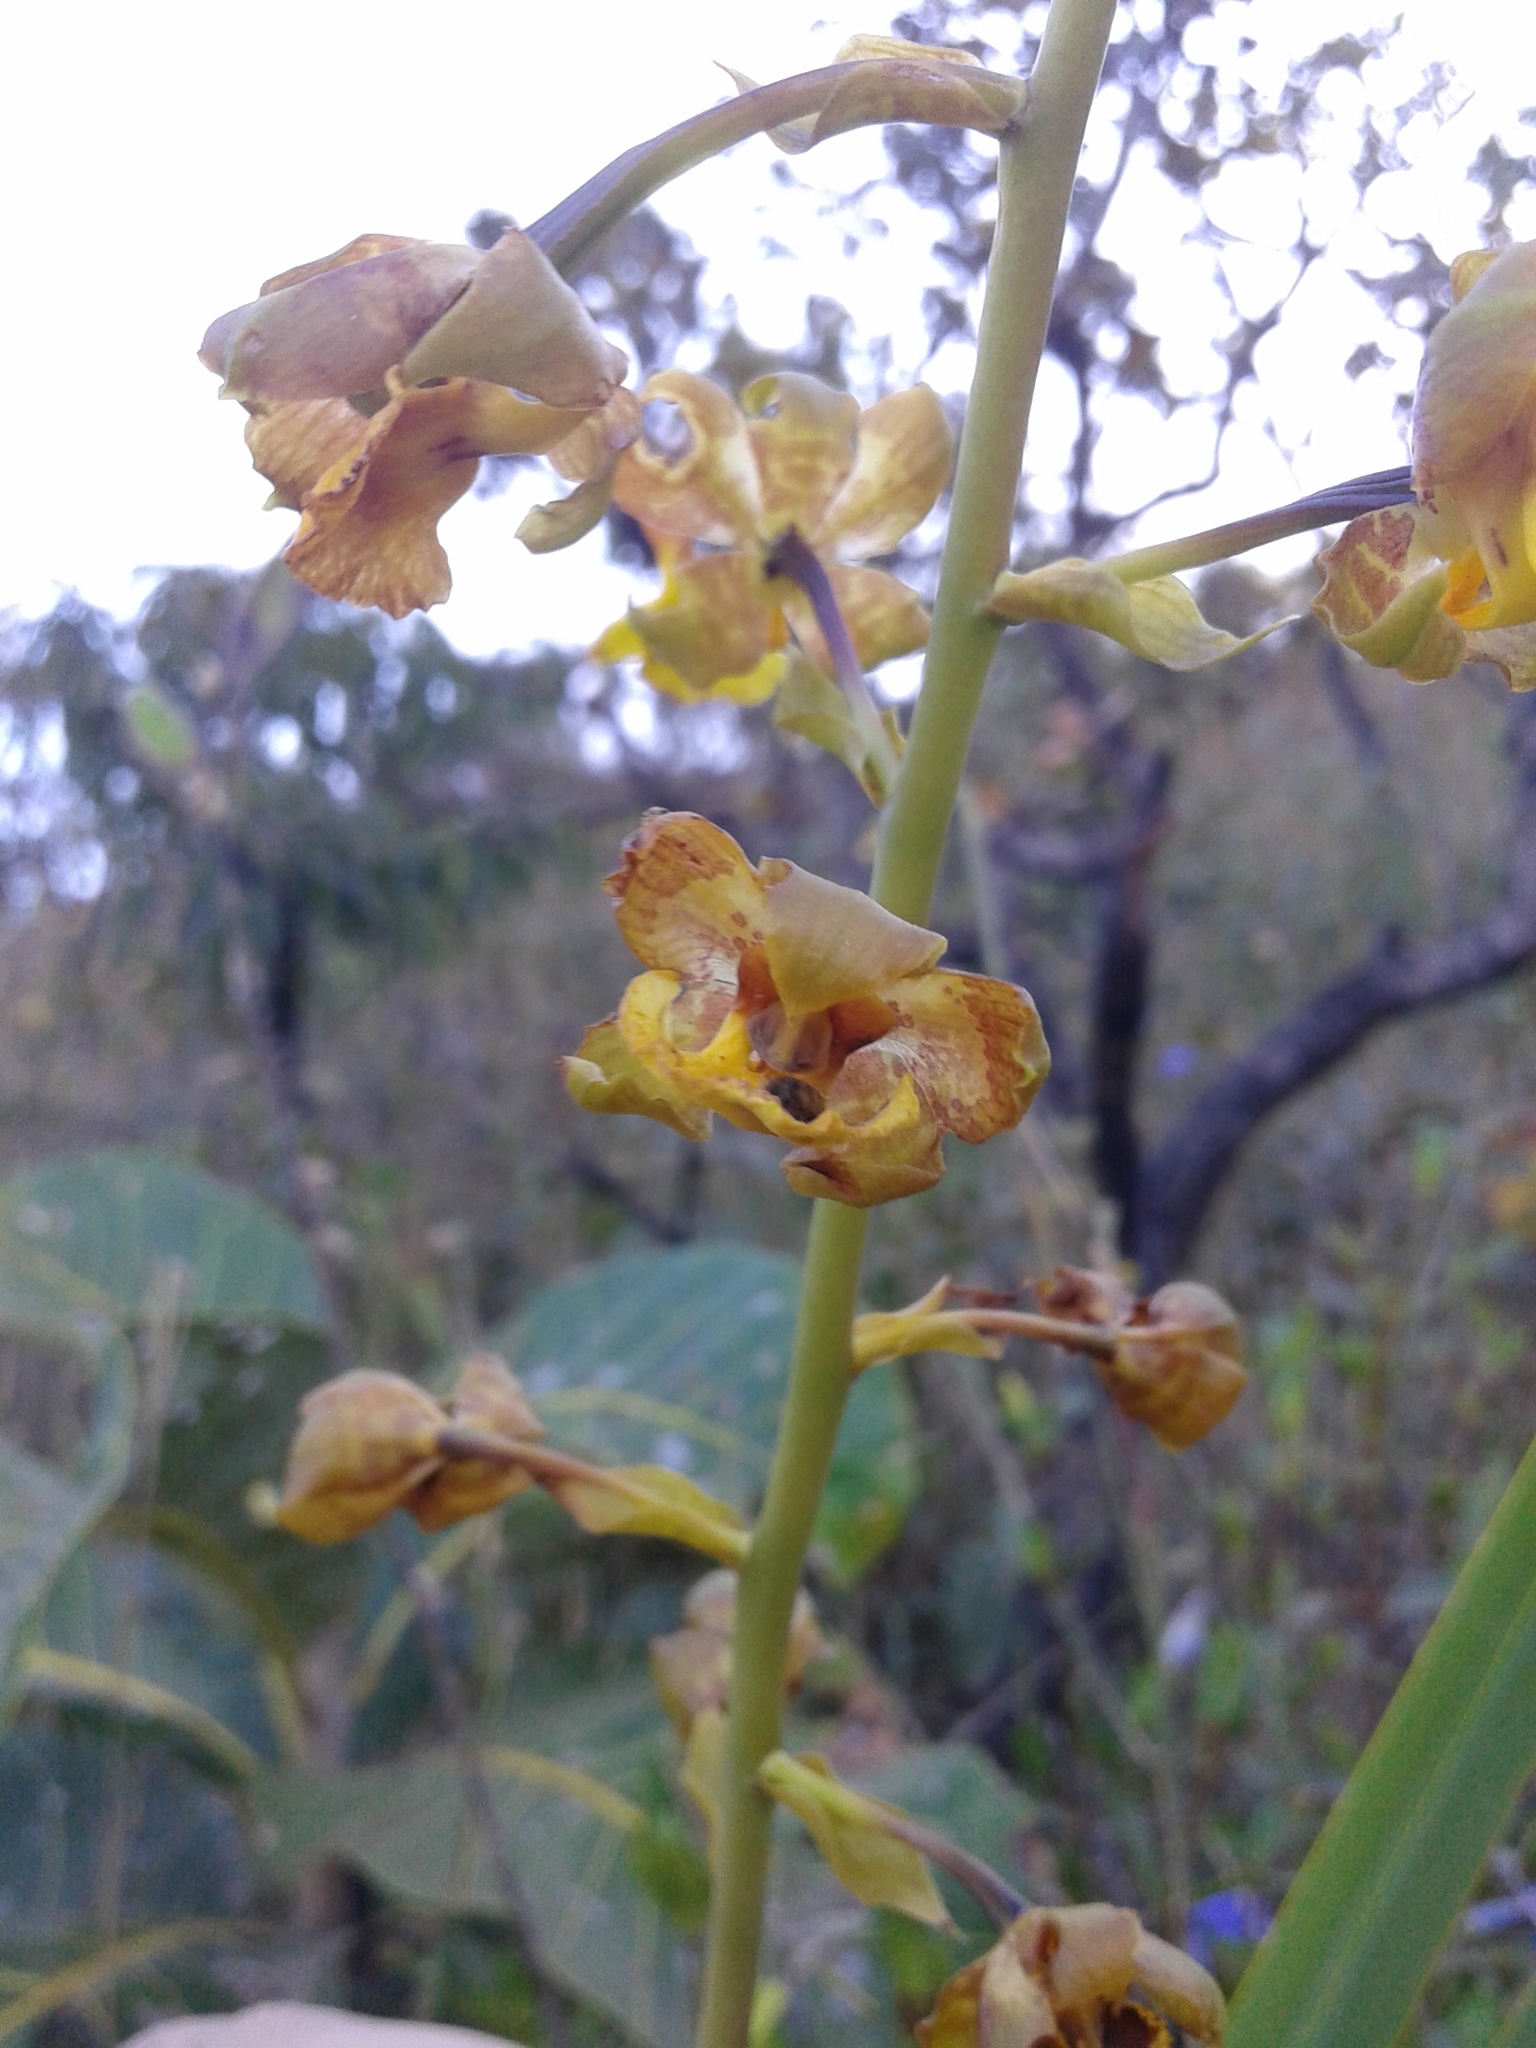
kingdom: Plantae
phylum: Tracheophyta
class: Liliopsida
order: Asparagales
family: Orchidaceae
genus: Cyrtopodium
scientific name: Cyrtopodium eugenii
